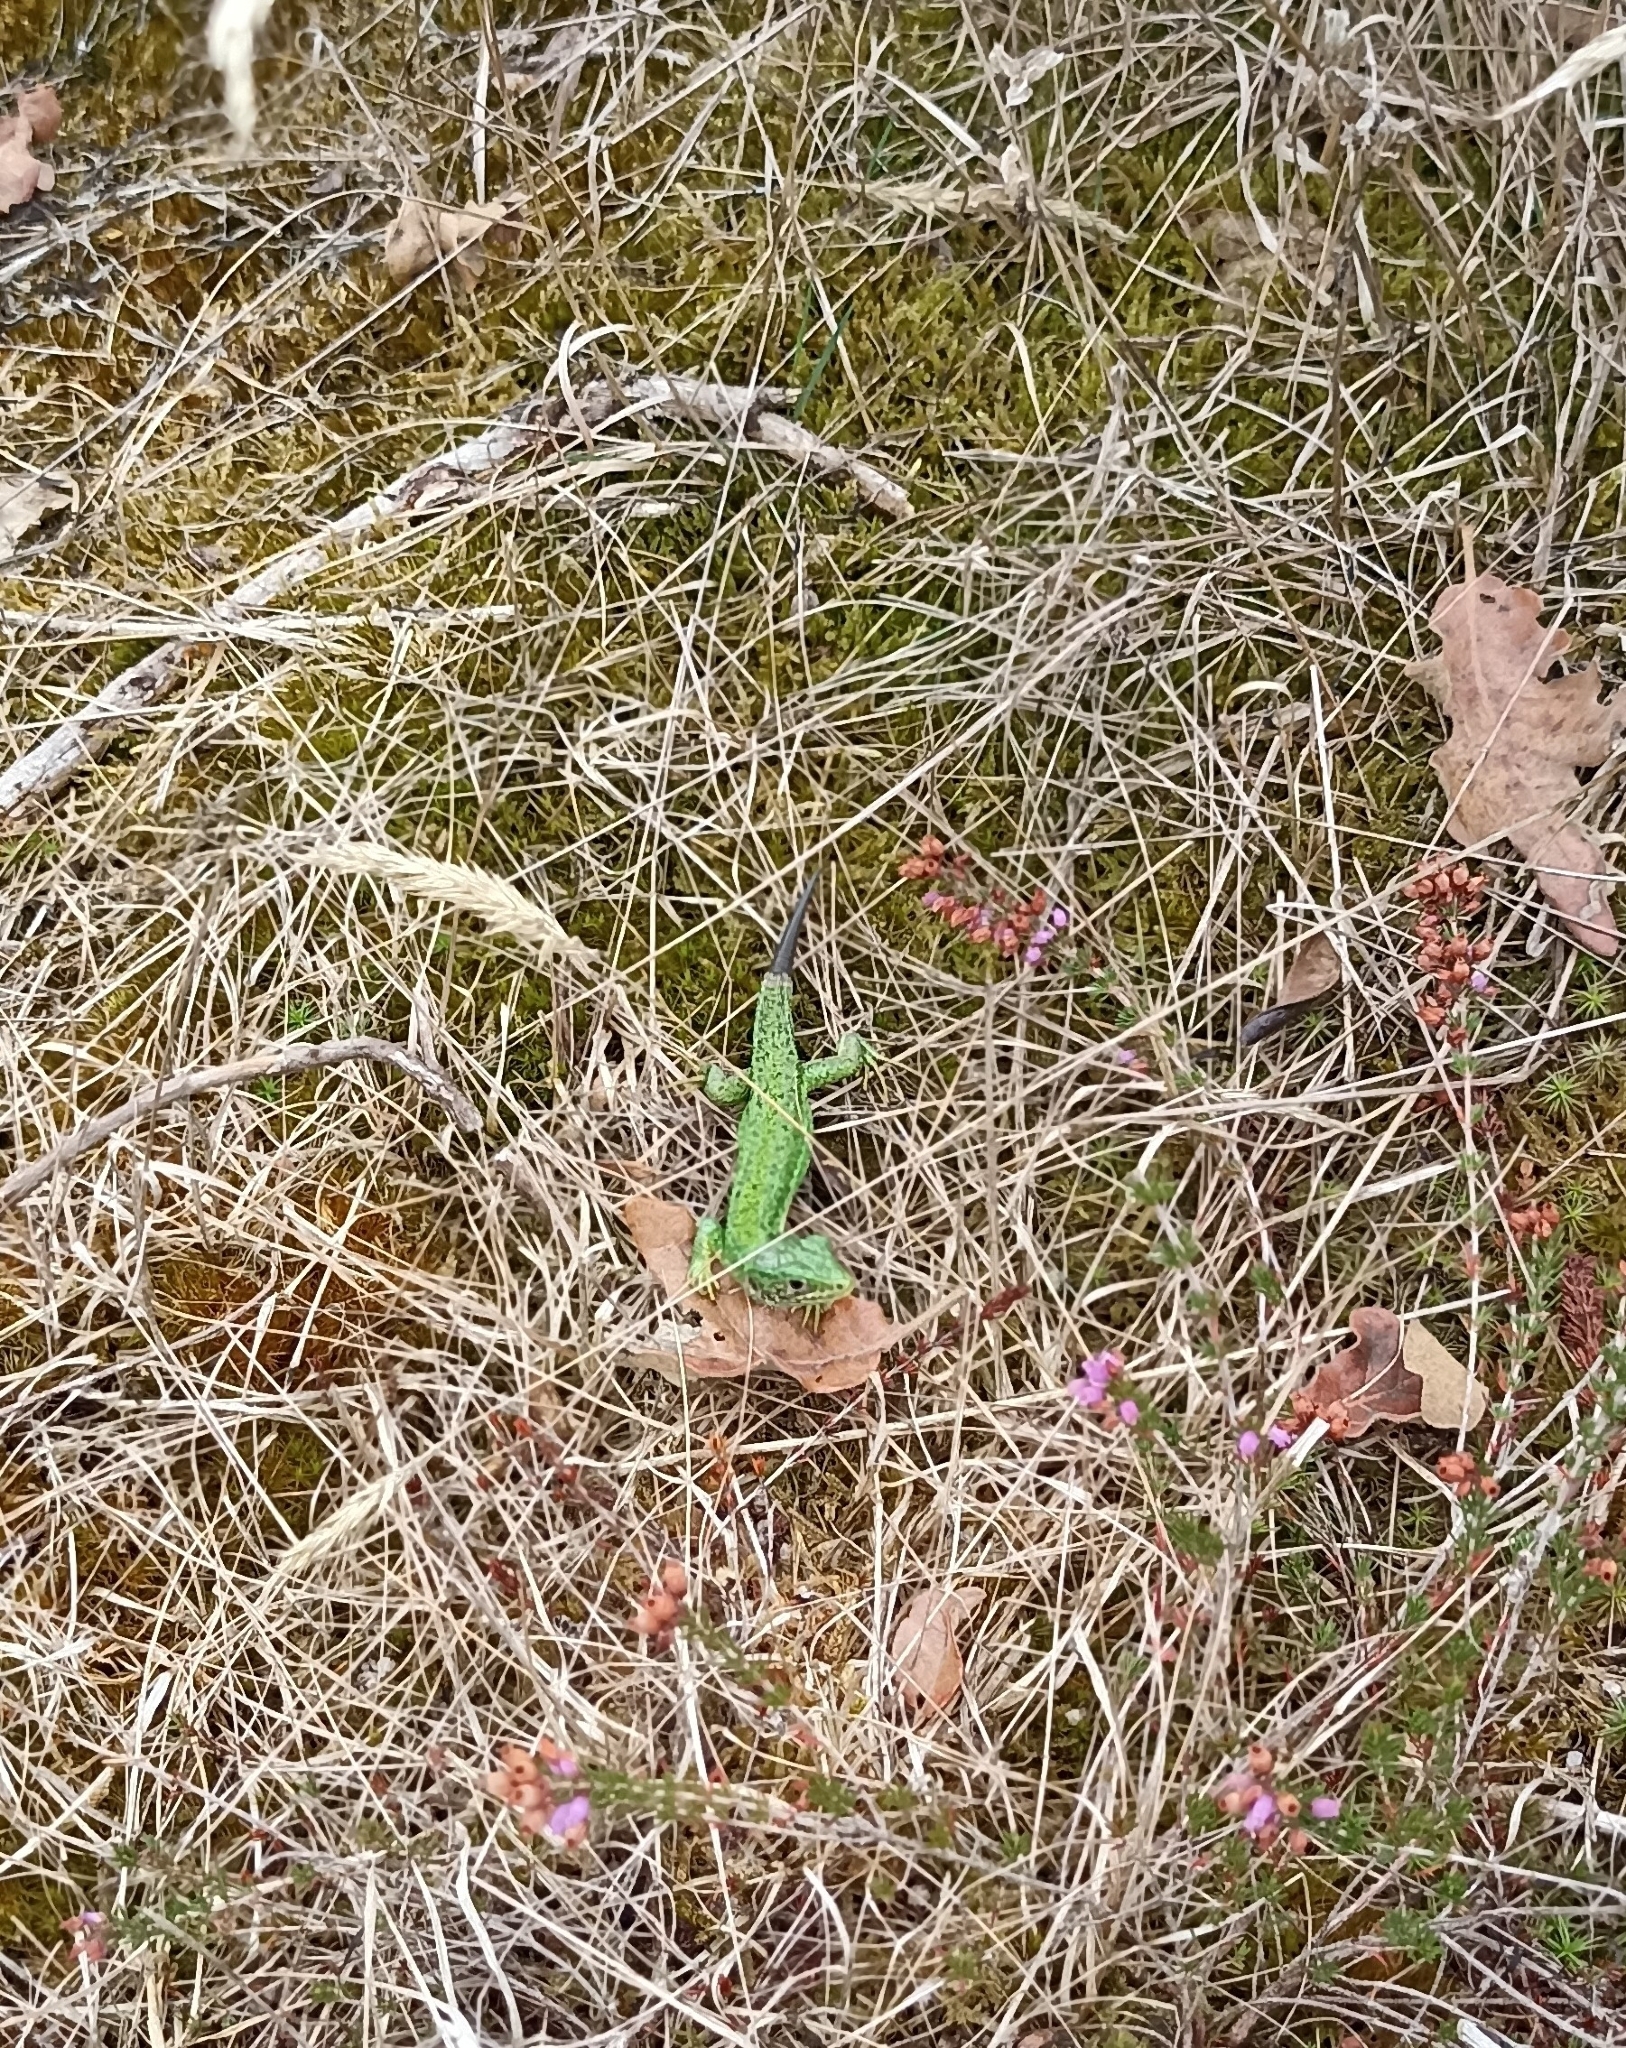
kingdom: Animalia
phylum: Chordata
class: Squamata
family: Lacertidae
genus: Lacerta
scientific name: Lacerta bilineata
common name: Western green lizard
